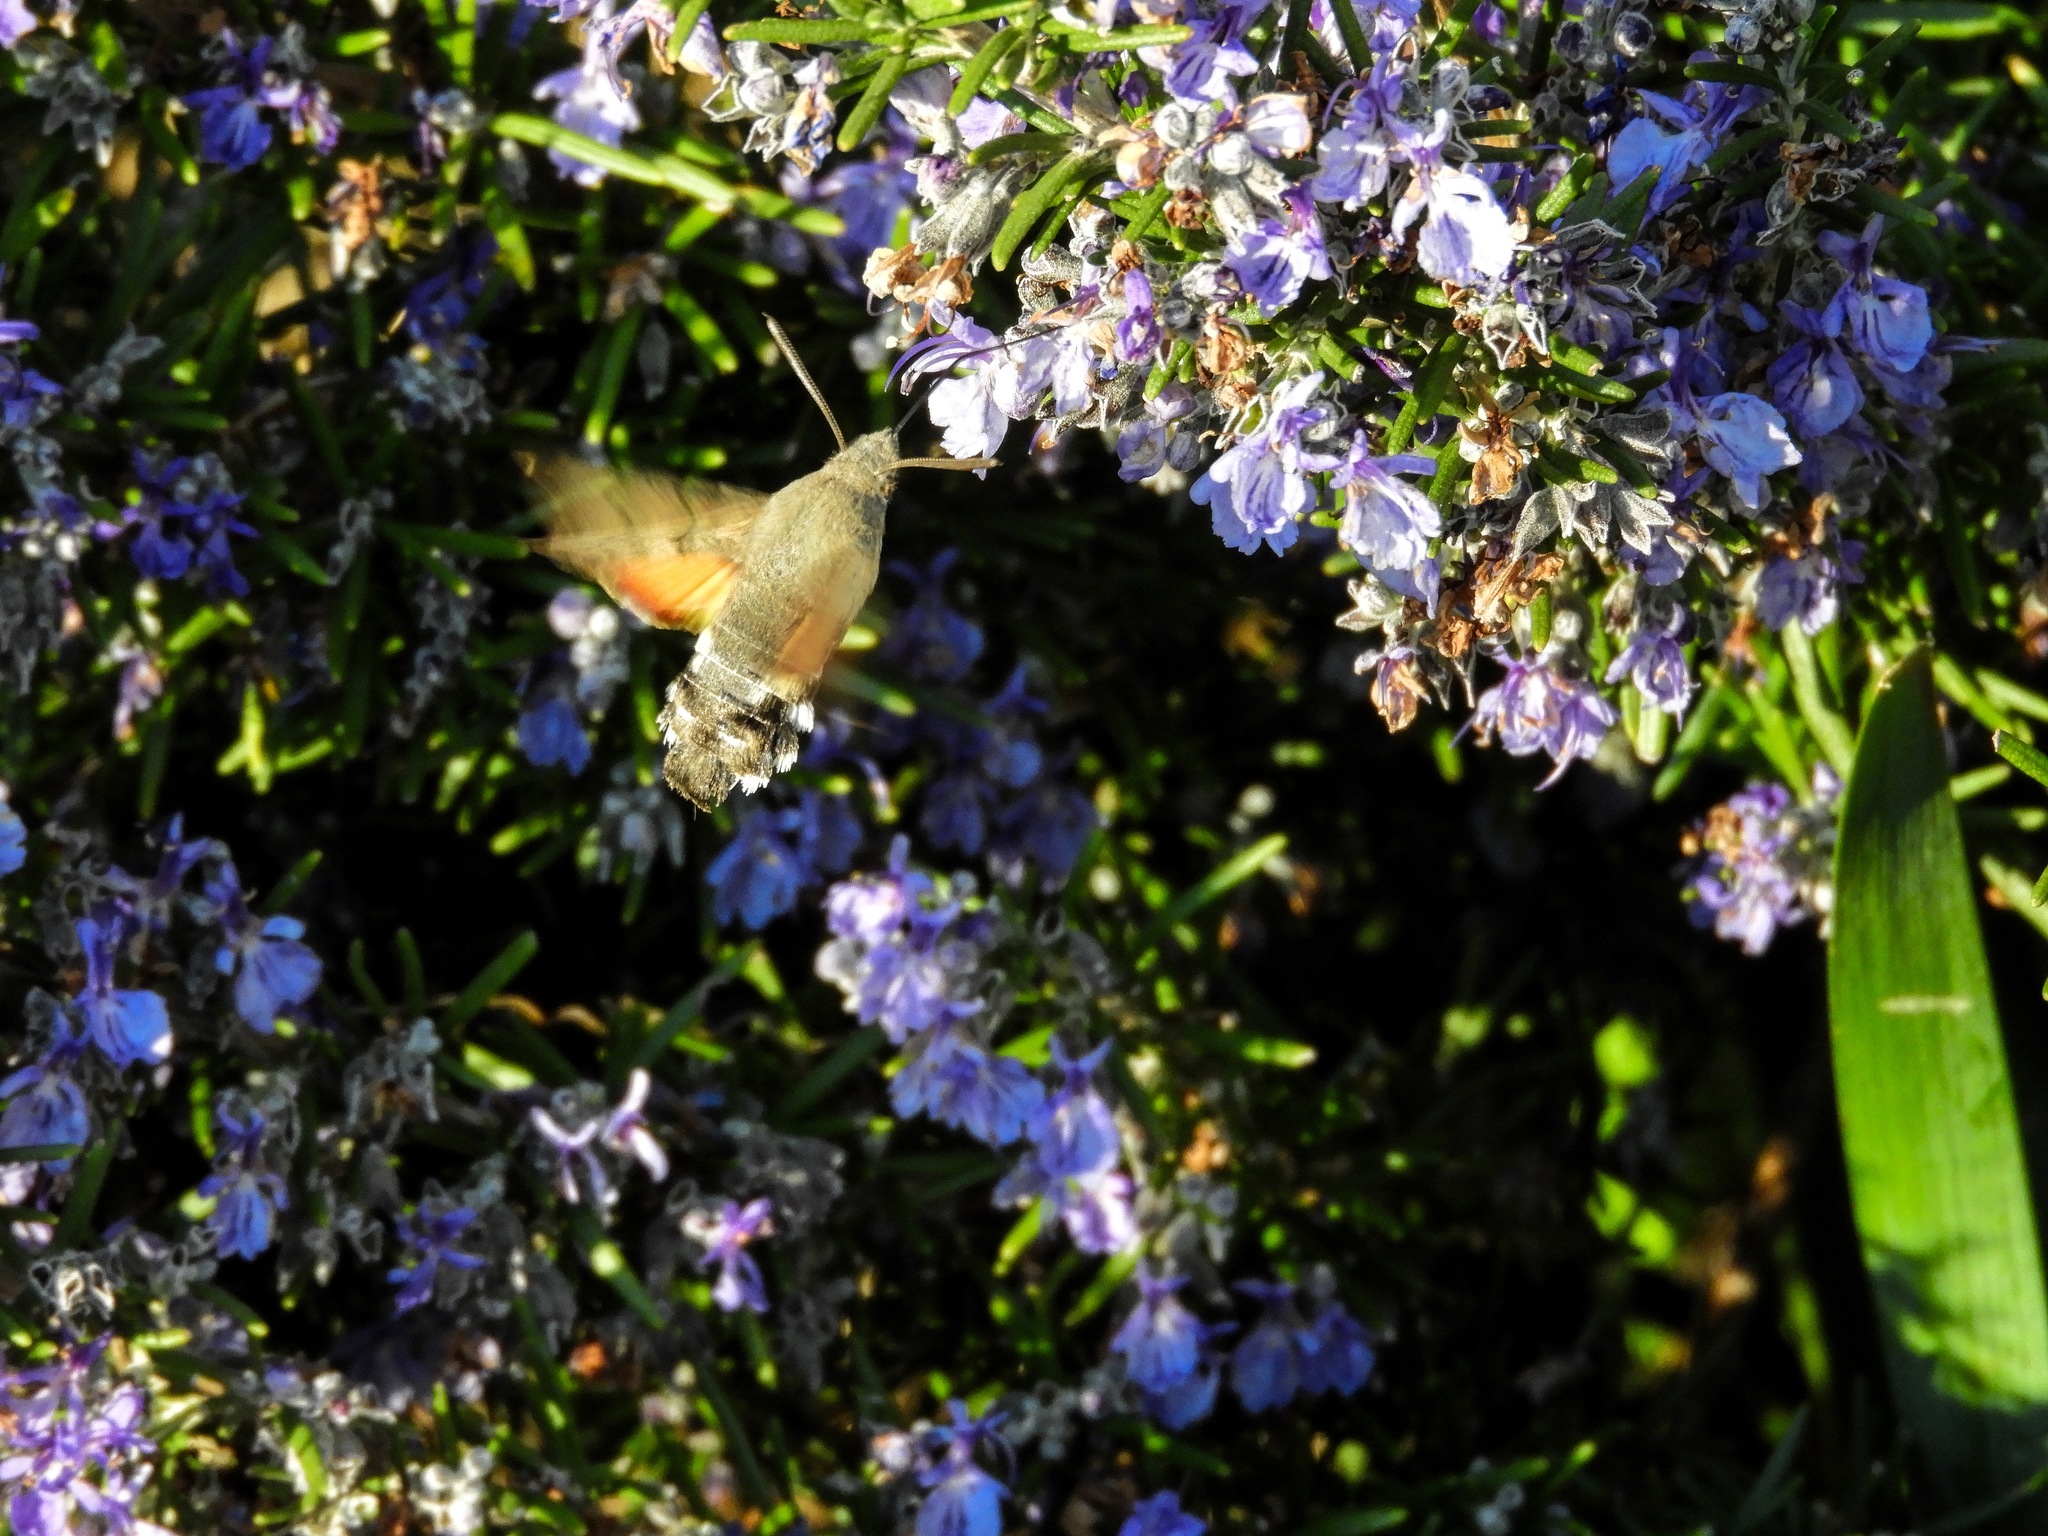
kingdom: Animalia
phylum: Arthropoda
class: Insecta
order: Lepidoptera
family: Sphingidae
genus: Macroglossum
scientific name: Macroglossum stellatarum
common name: Humming-bird hawk-moth
